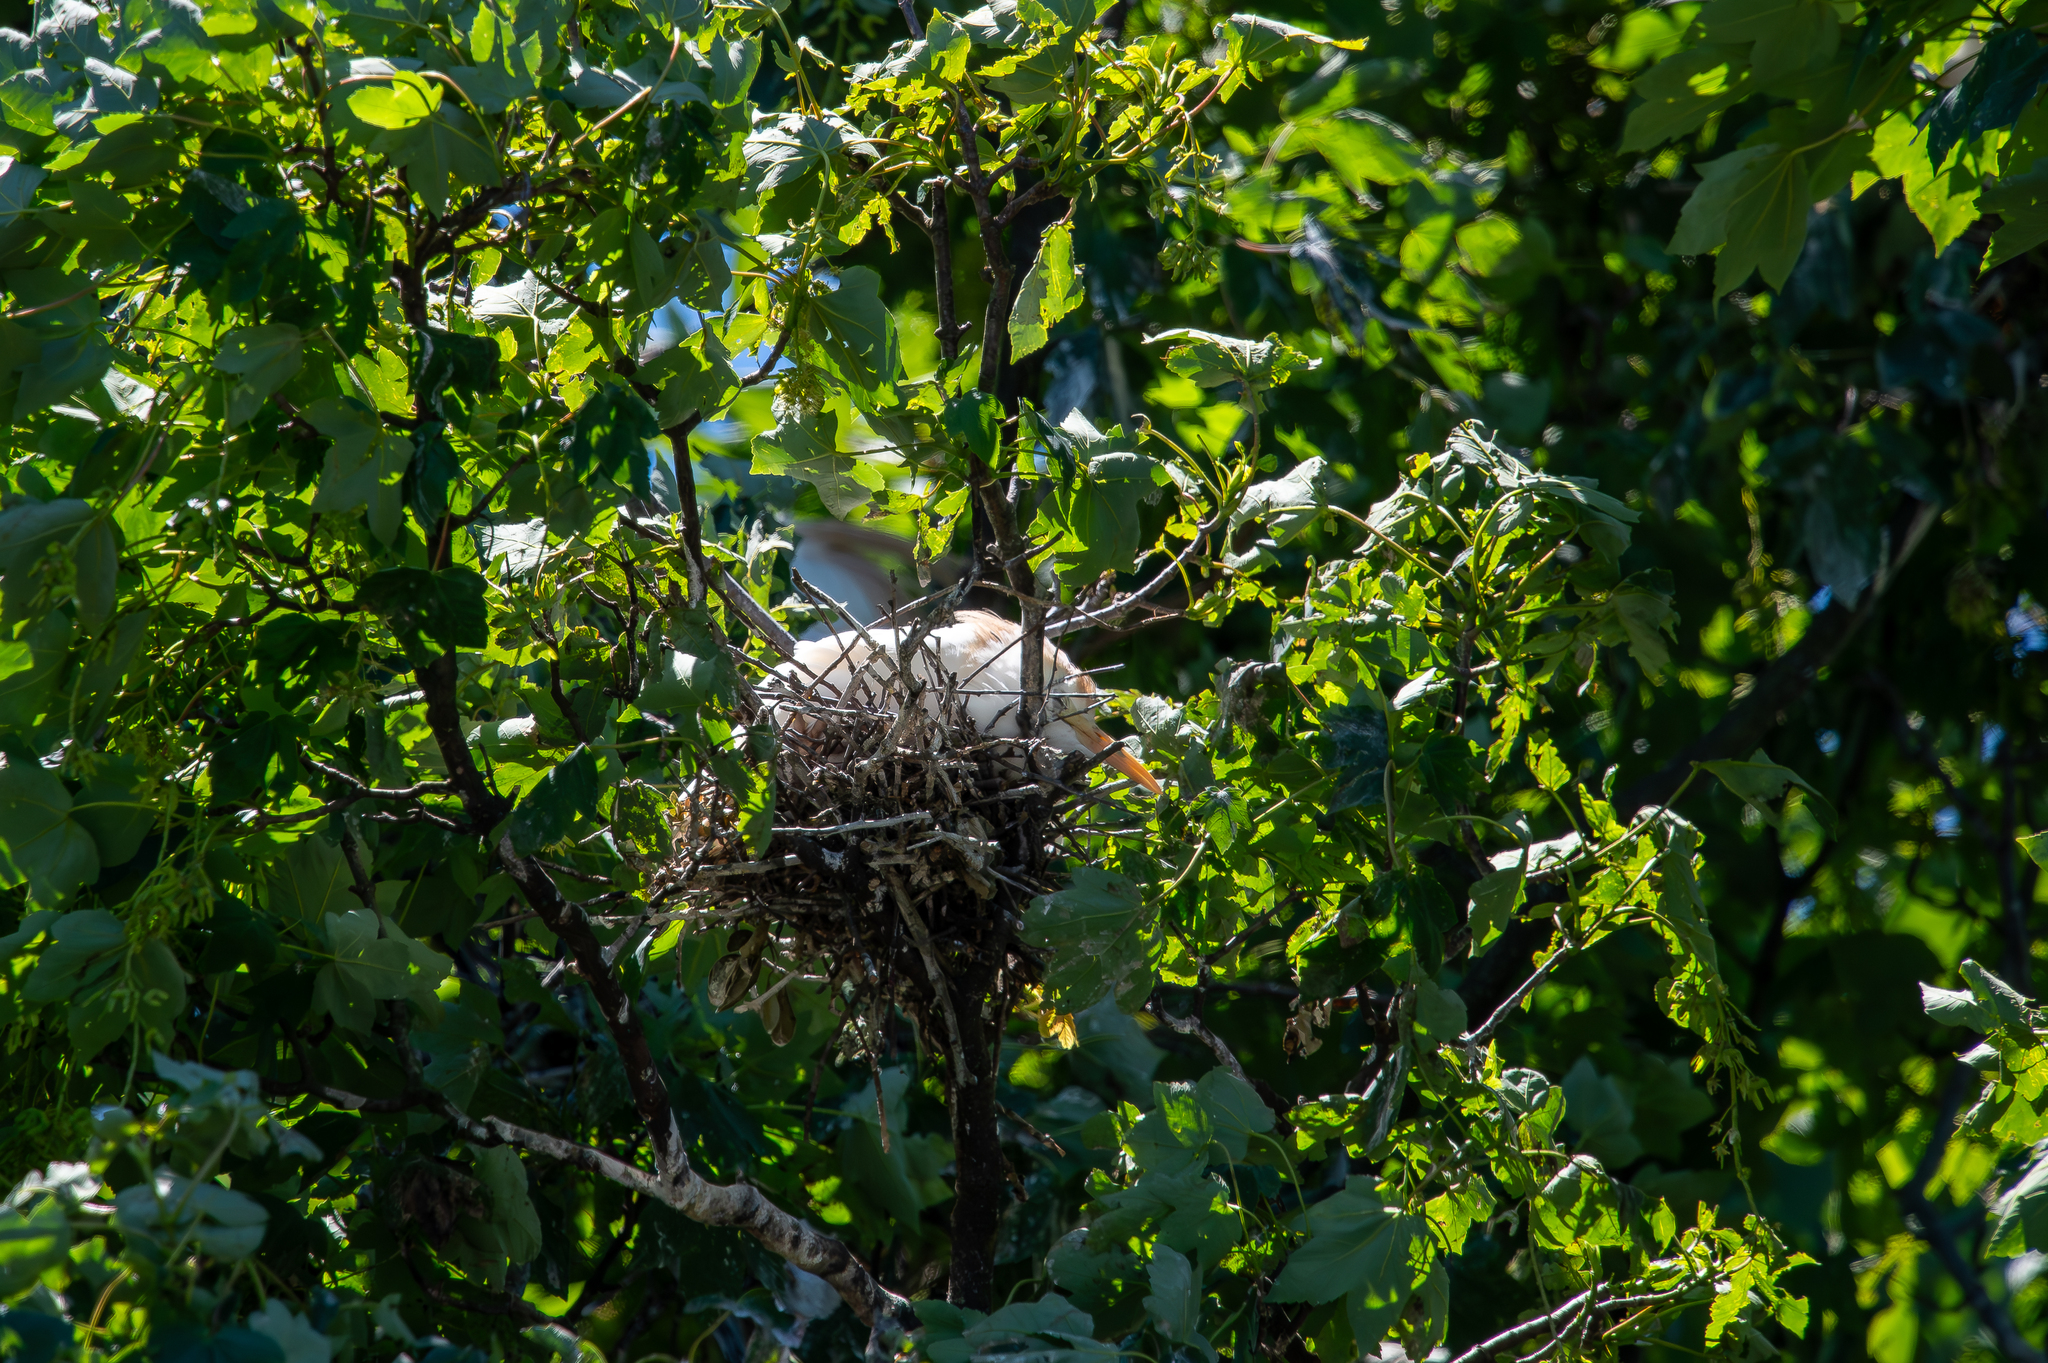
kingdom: Animalia
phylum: Chordata
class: Aves
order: Pelecaniformes
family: Ardeidae
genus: Bubulcus
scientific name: Bubulcus ibis
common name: Cattle egret
